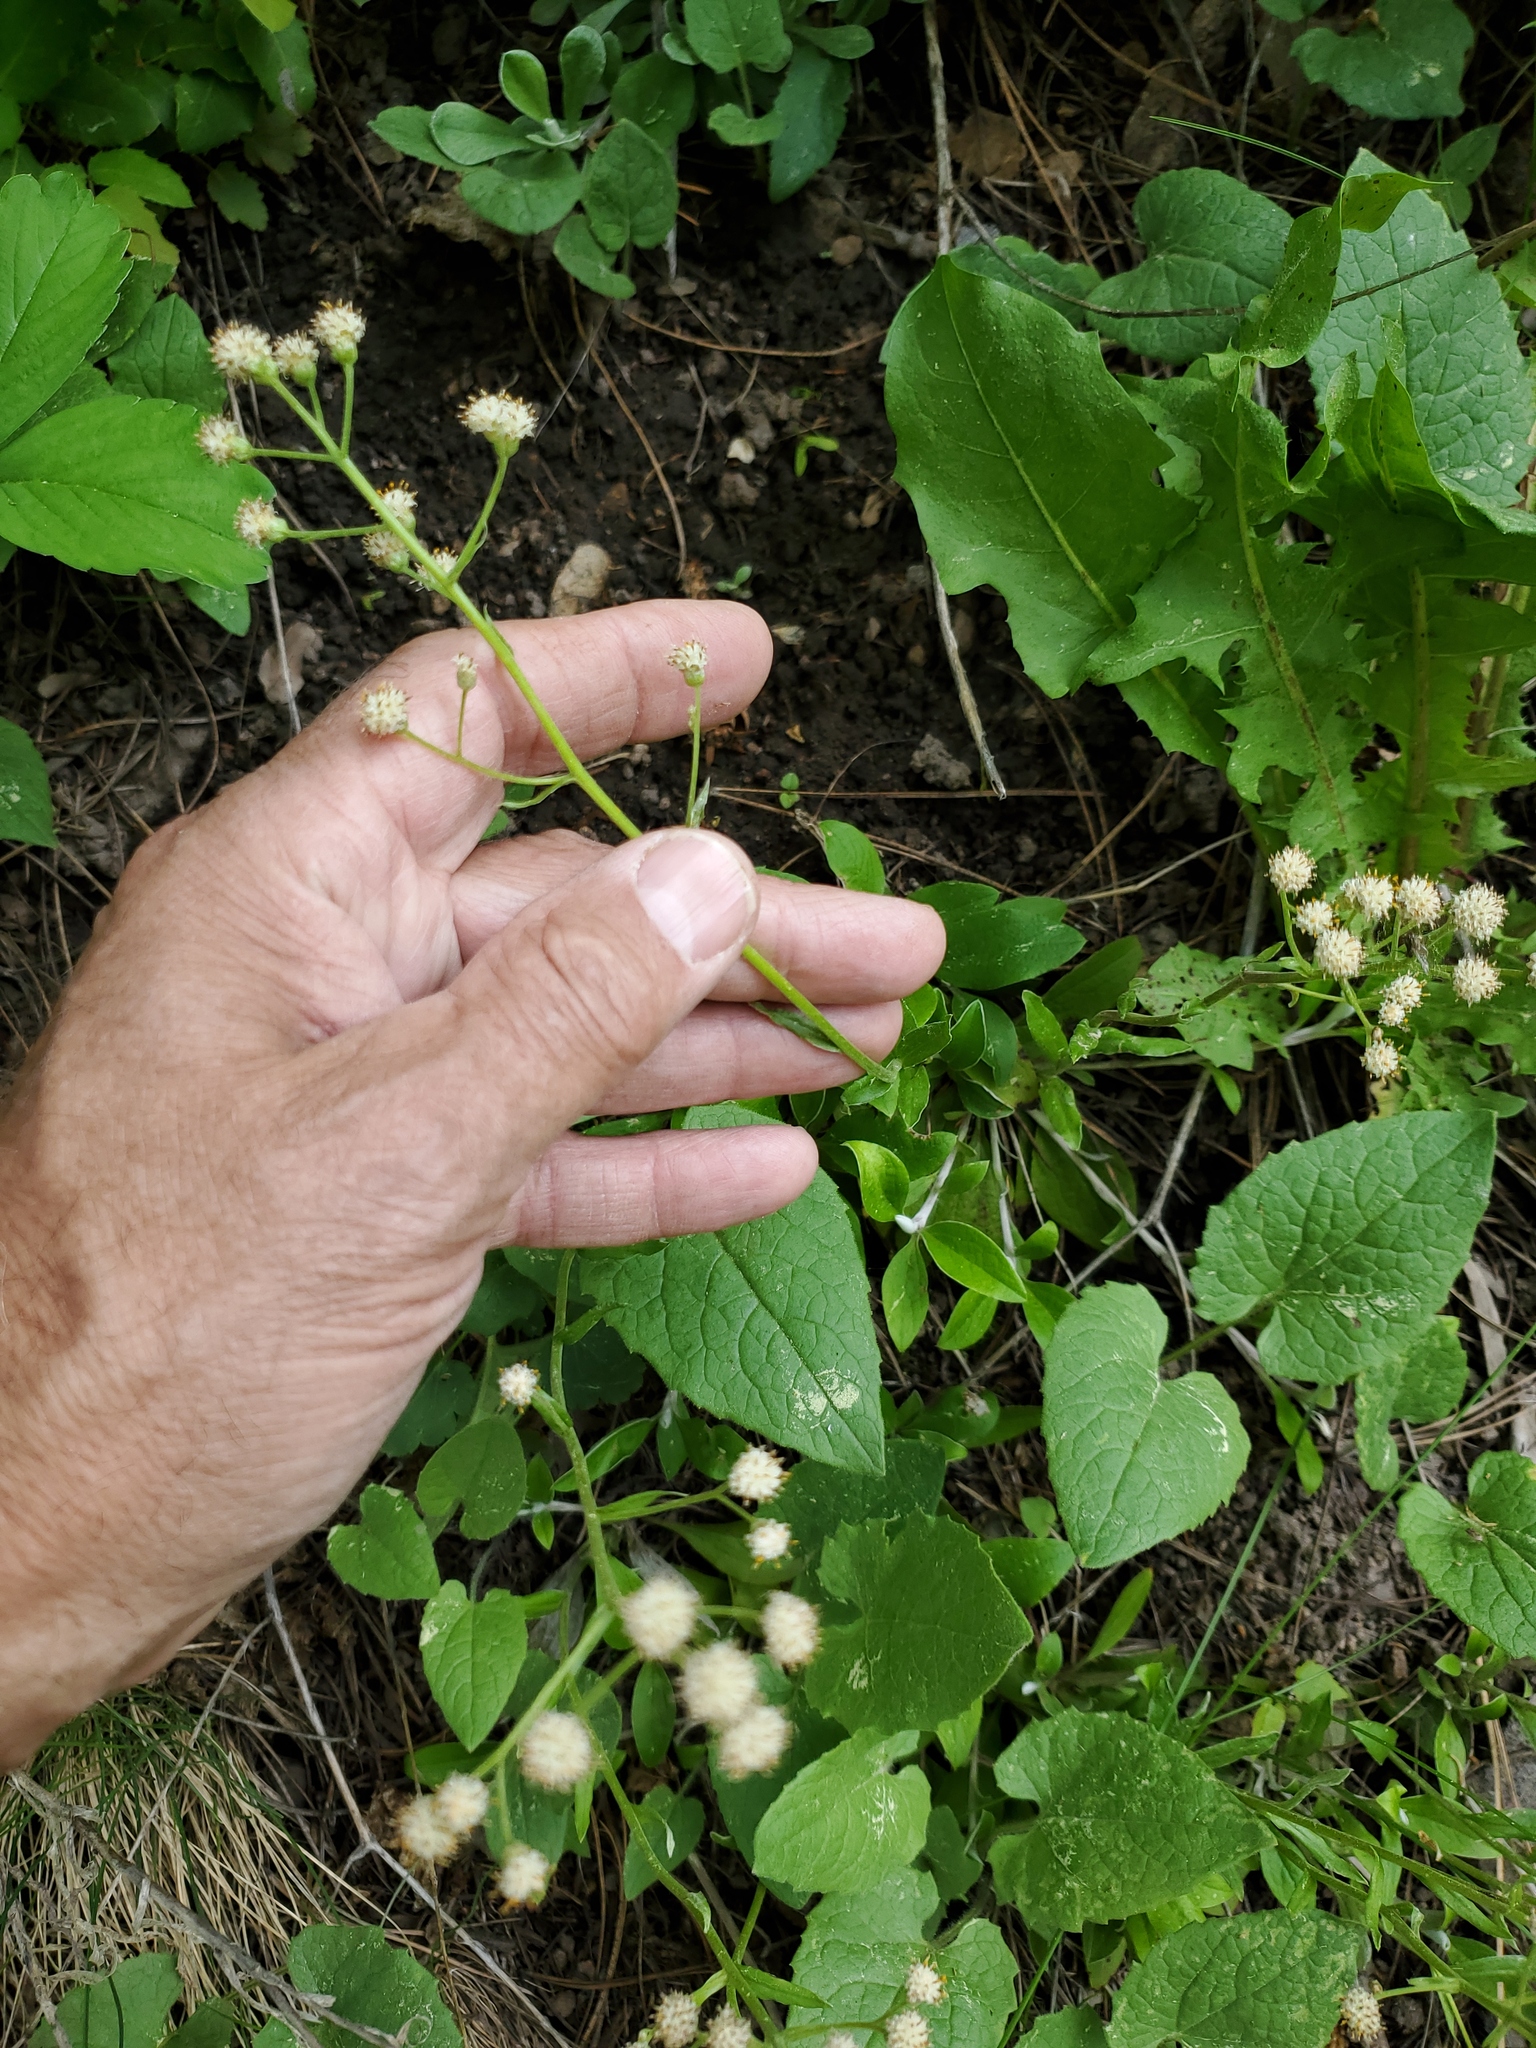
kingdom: Plantae
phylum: Tracheophyta
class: Magnoliopsida
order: Asterales
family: Asteraceae
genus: Antennaria
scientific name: Antennaria racemosa
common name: Racemose pussytoes
